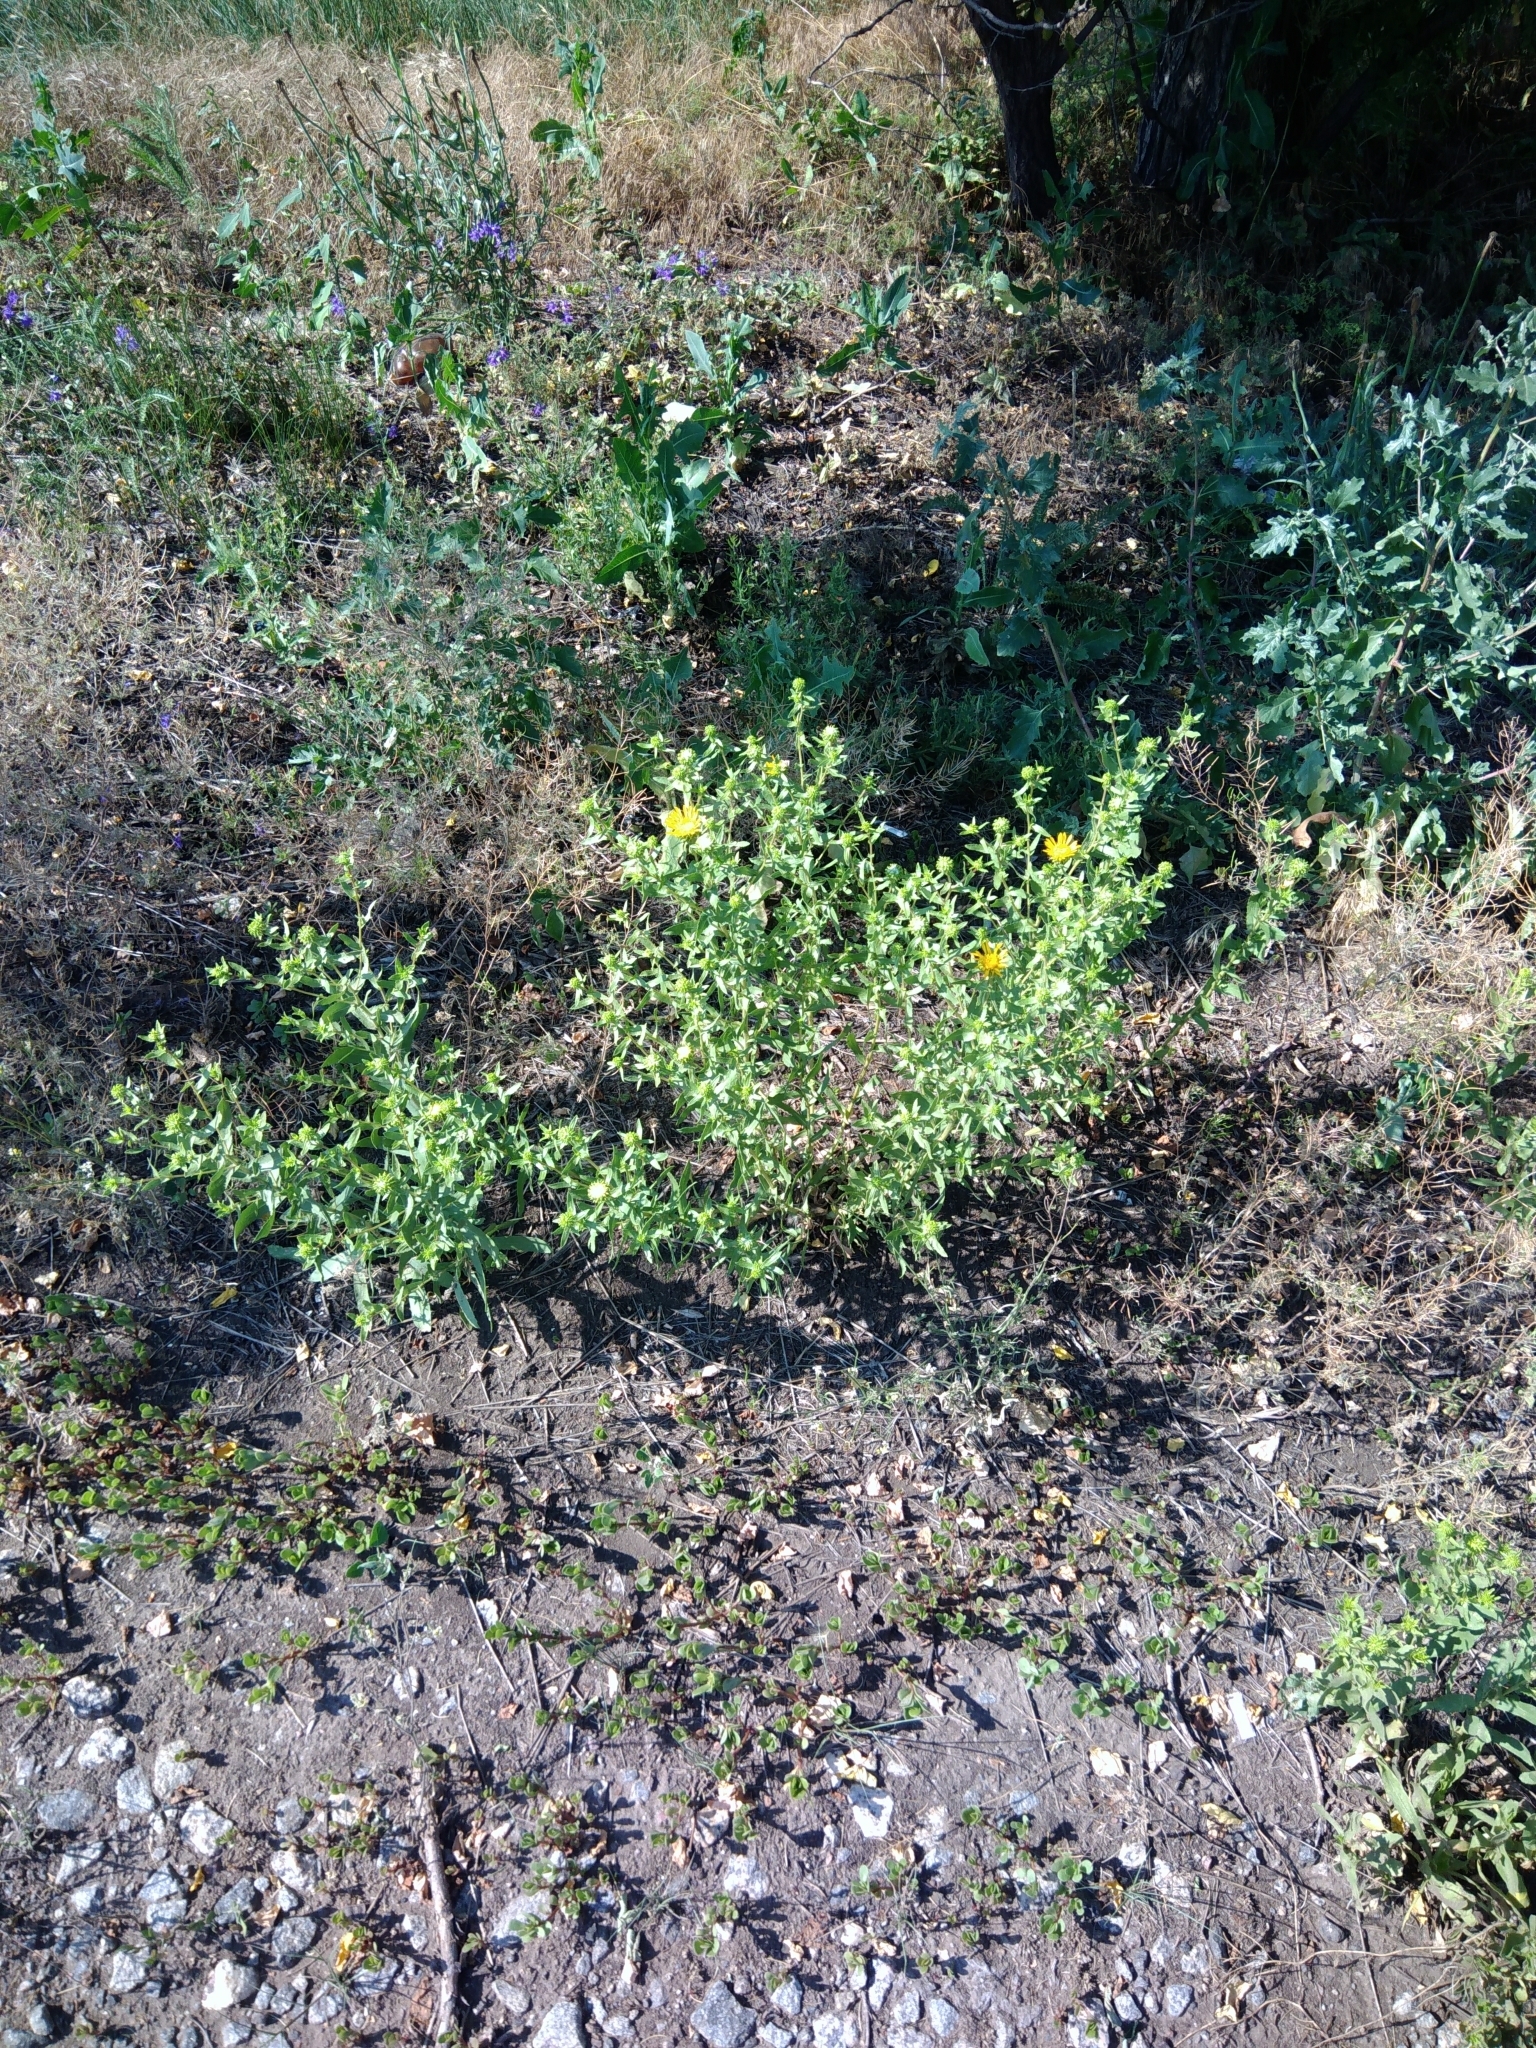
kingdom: Plantae
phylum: Tracheophyta
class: Magnoliopsida
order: Asterales
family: Asteraceae
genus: Grindelia
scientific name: Grindelia squarrosa
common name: Curly-cup gumweed
